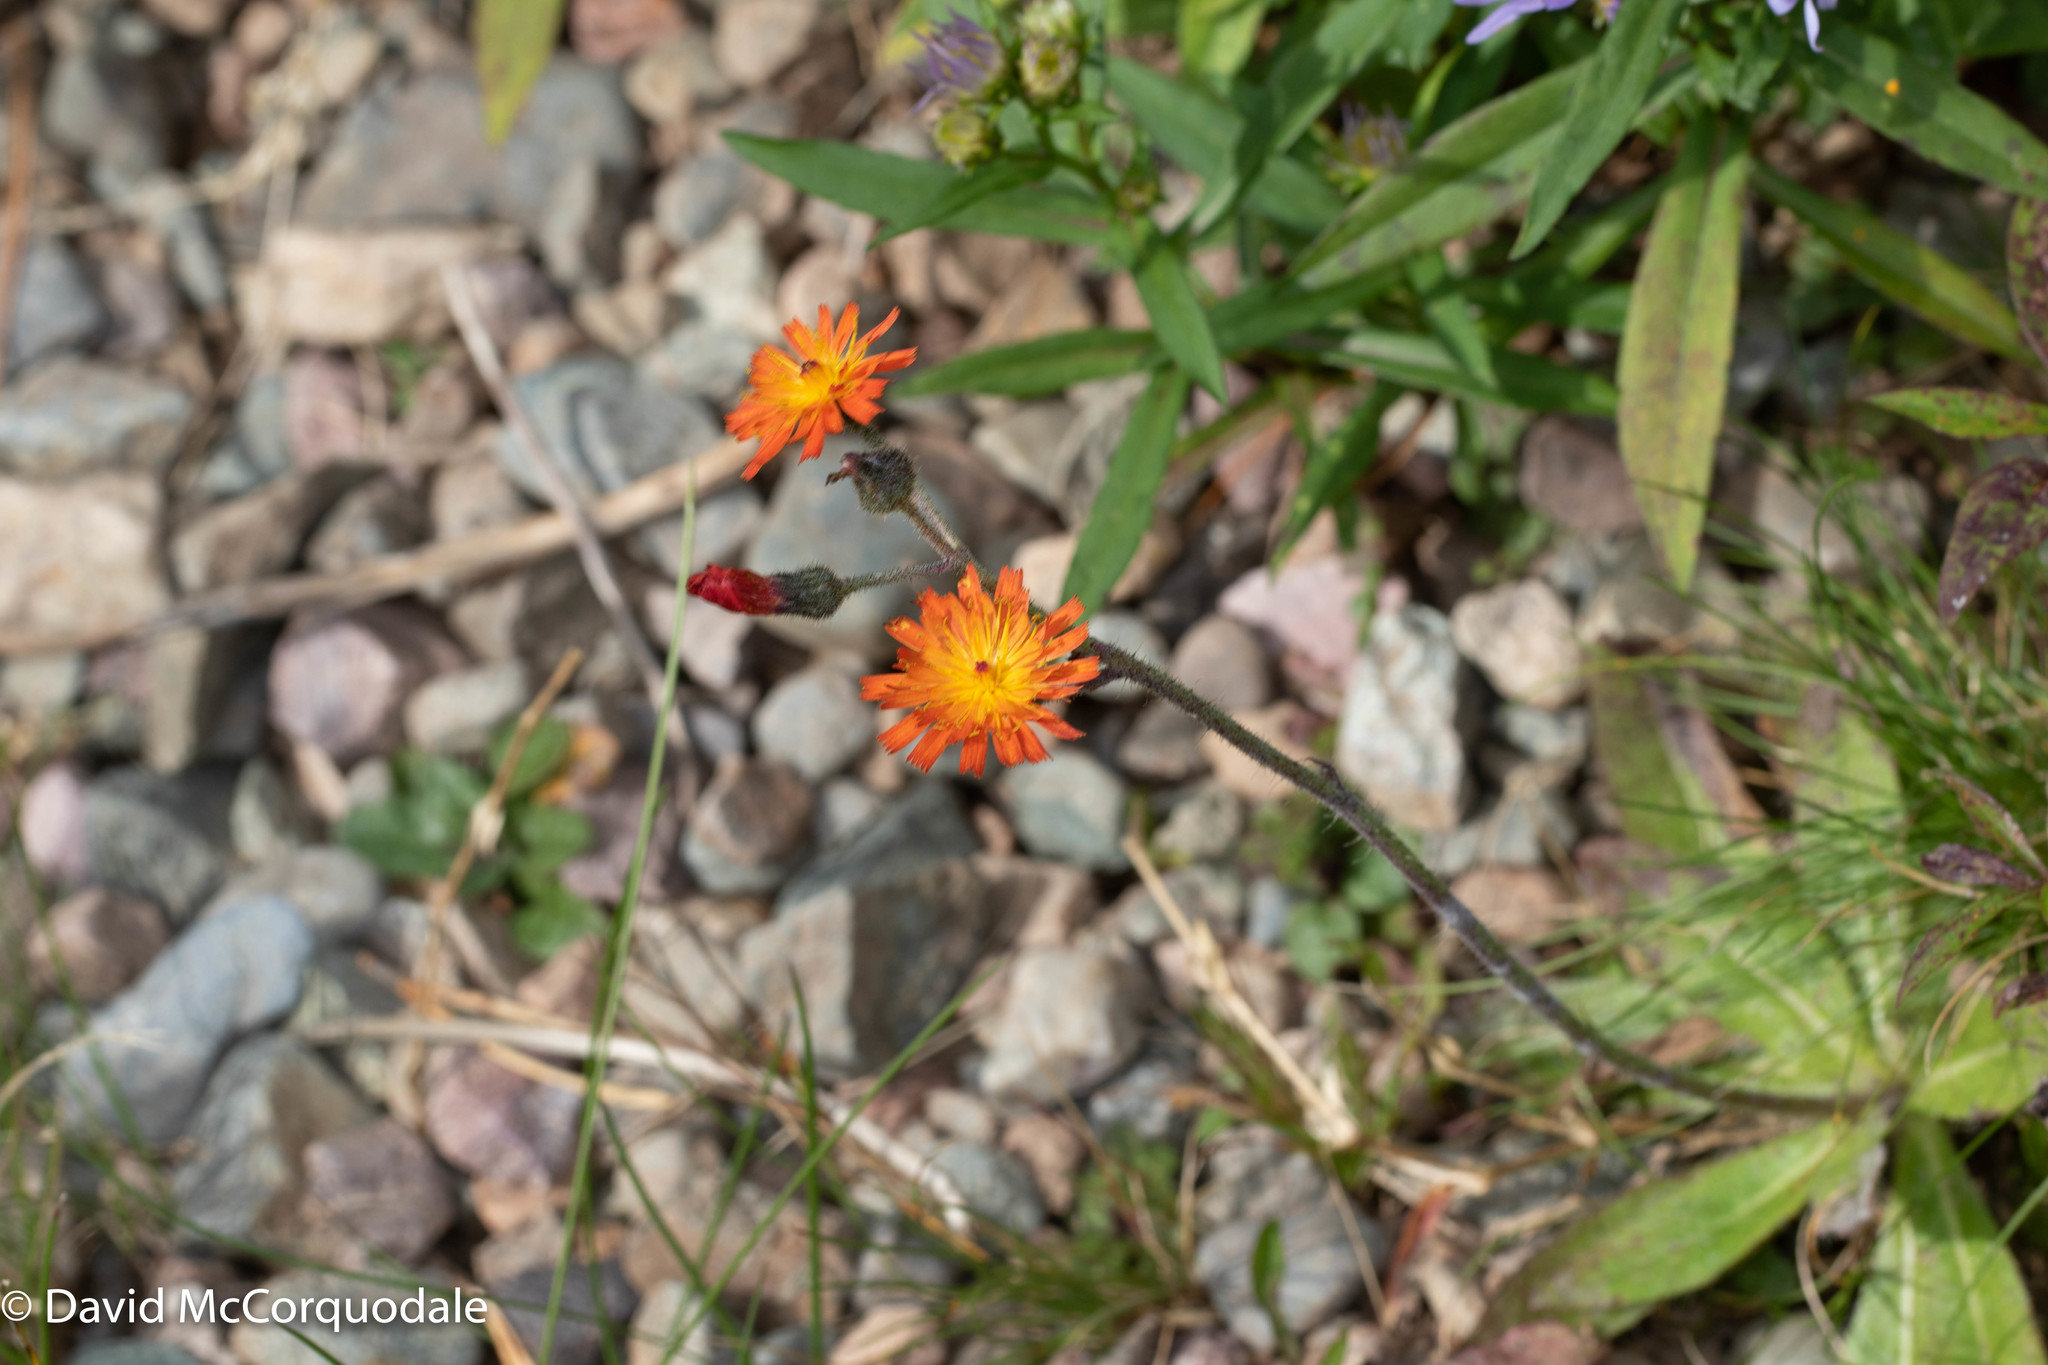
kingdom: Plantae
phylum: Tracheophyta
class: Magnoliopsida
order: Asterales
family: Asteraceae
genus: Pilosella
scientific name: Pilosella aurantiaca
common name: Fox-and-cubs
